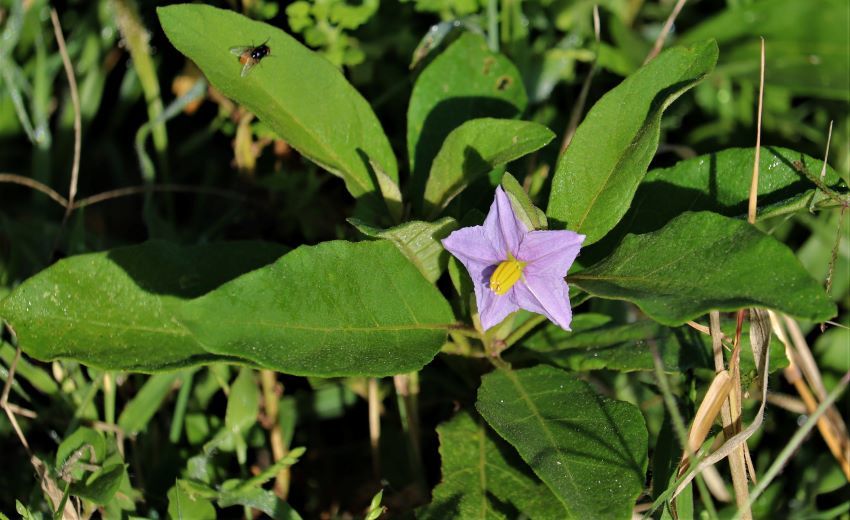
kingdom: Plantae
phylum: Tracheophyta
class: Magnoliopsida
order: Solanales
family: Solanaceae
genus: Solanum
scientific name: Solanum campylacanthum
